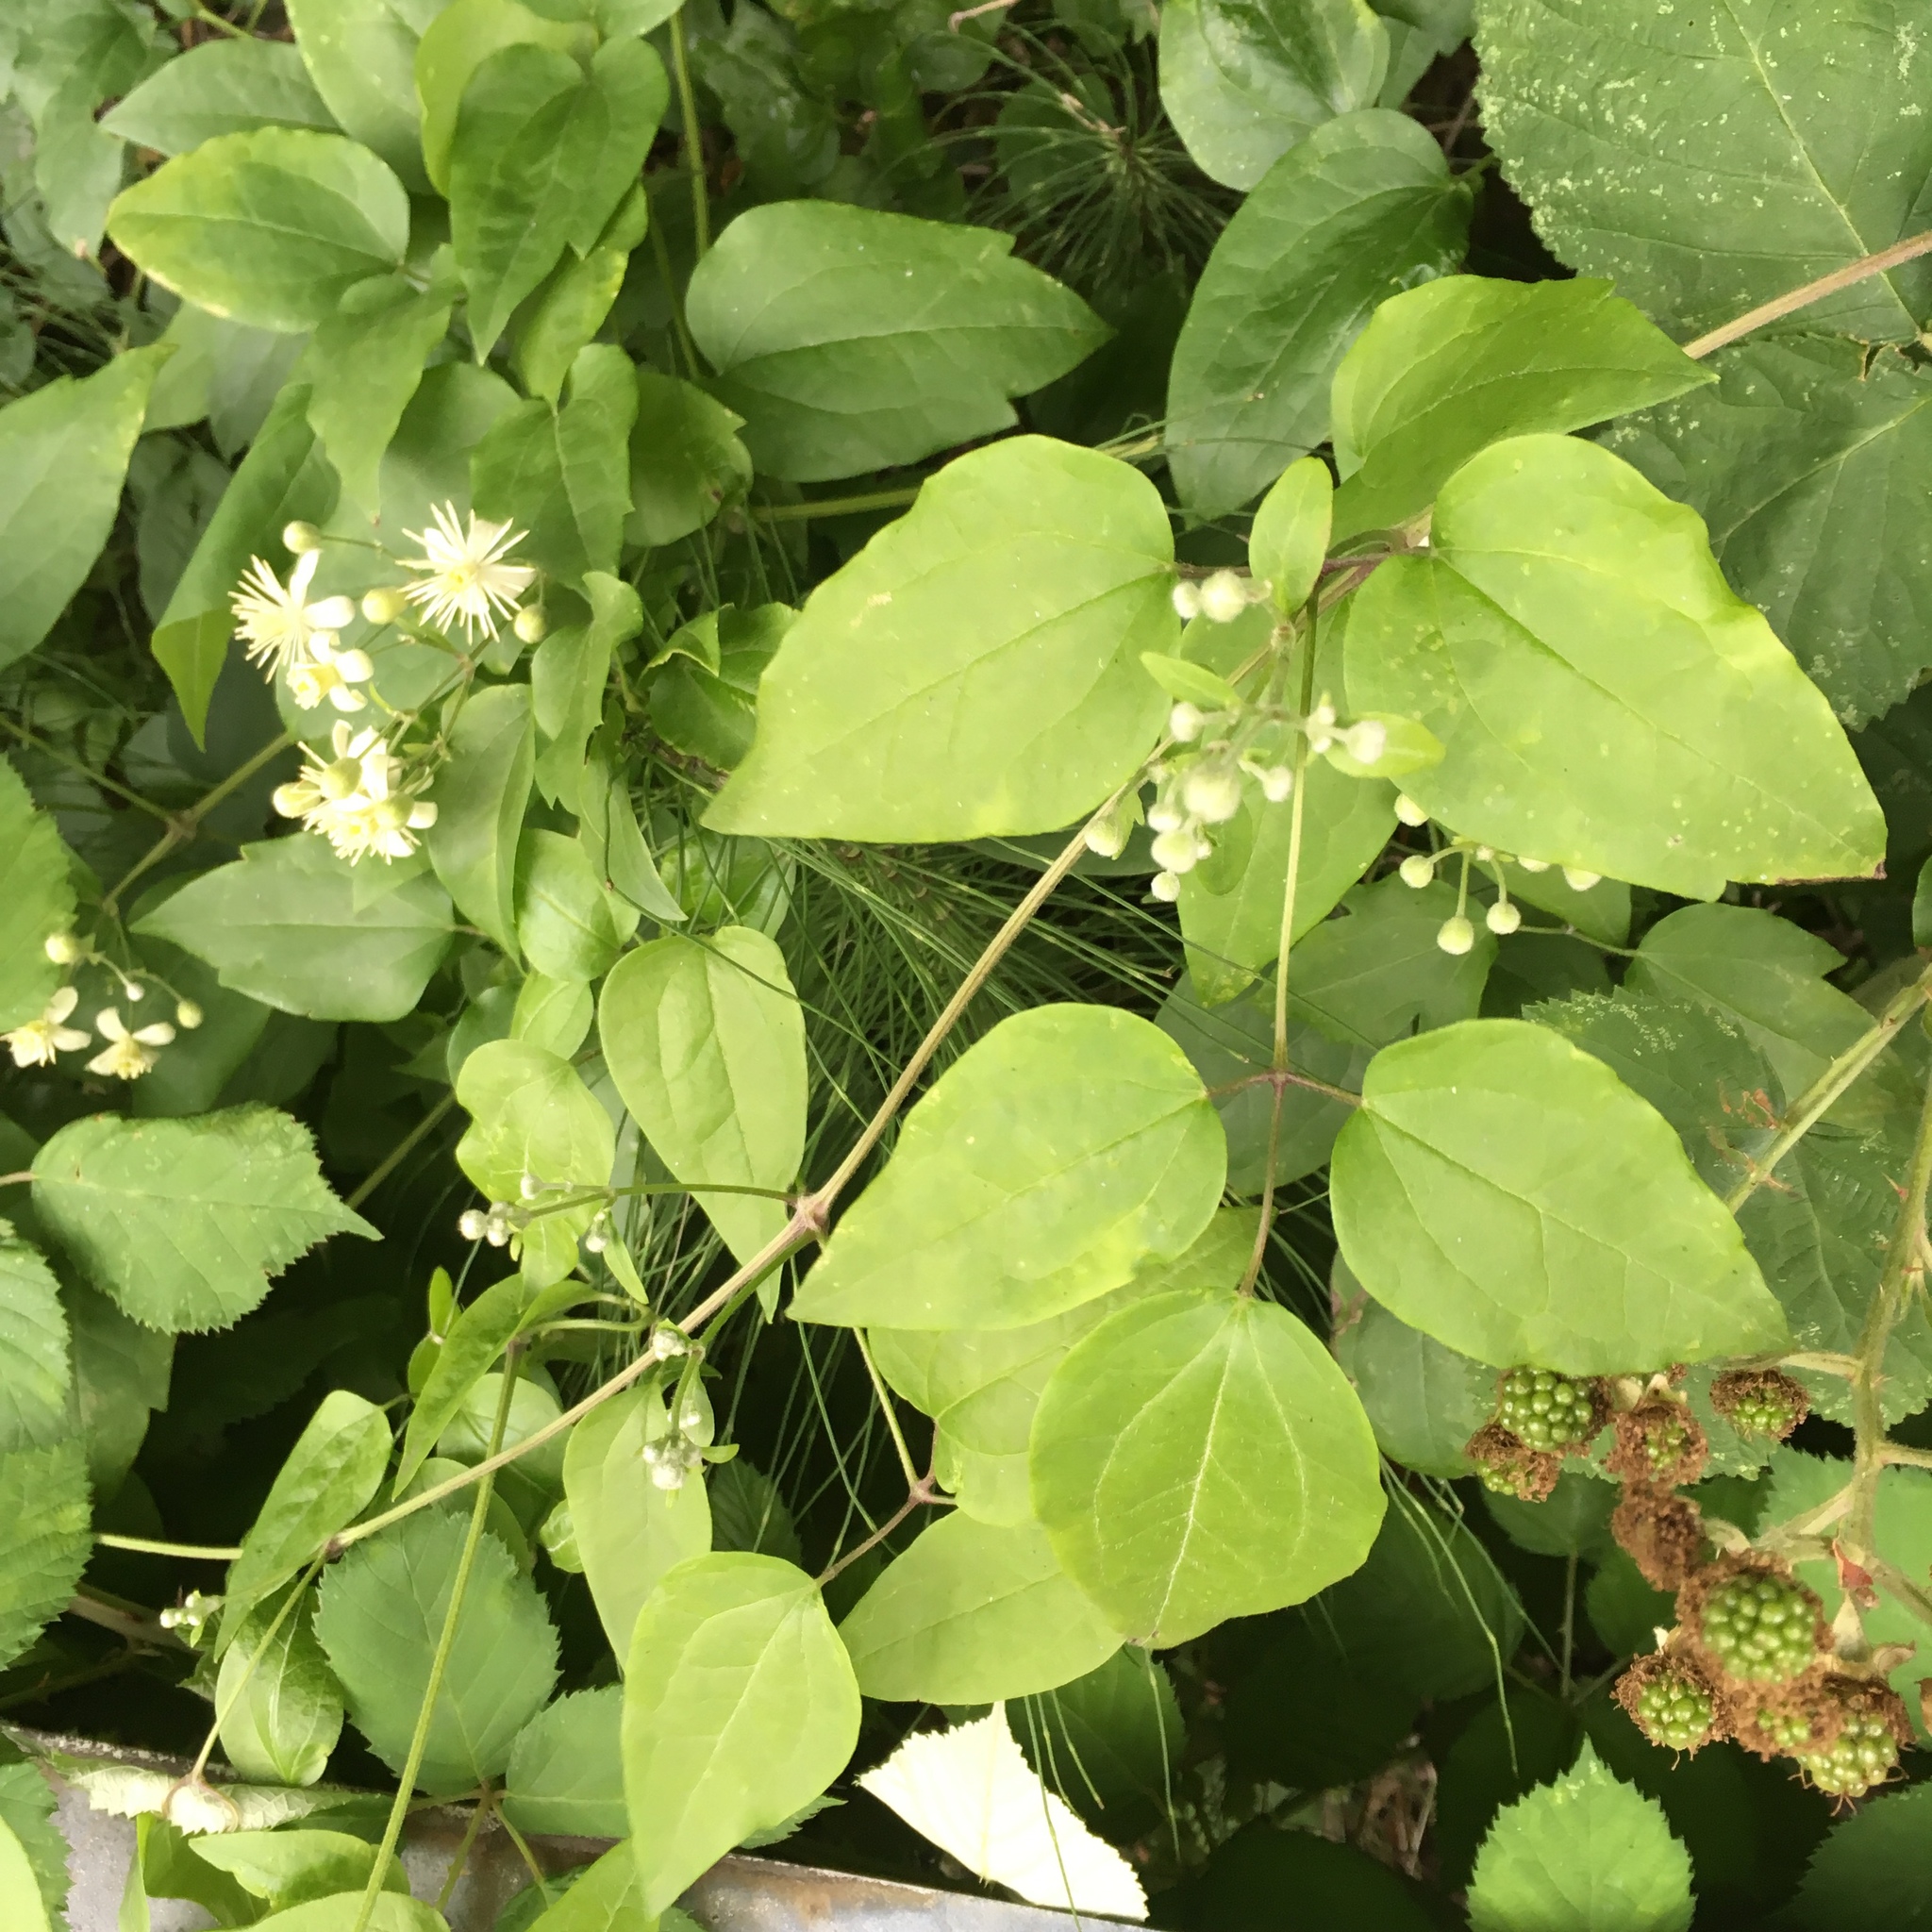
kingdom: Plantae
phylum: Tracheophyta
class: Magnoliopsida
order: Ranunculales
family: Ranunculaceae
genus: Clematis
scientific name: Clematis vitalba
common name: Evergreen clematis
